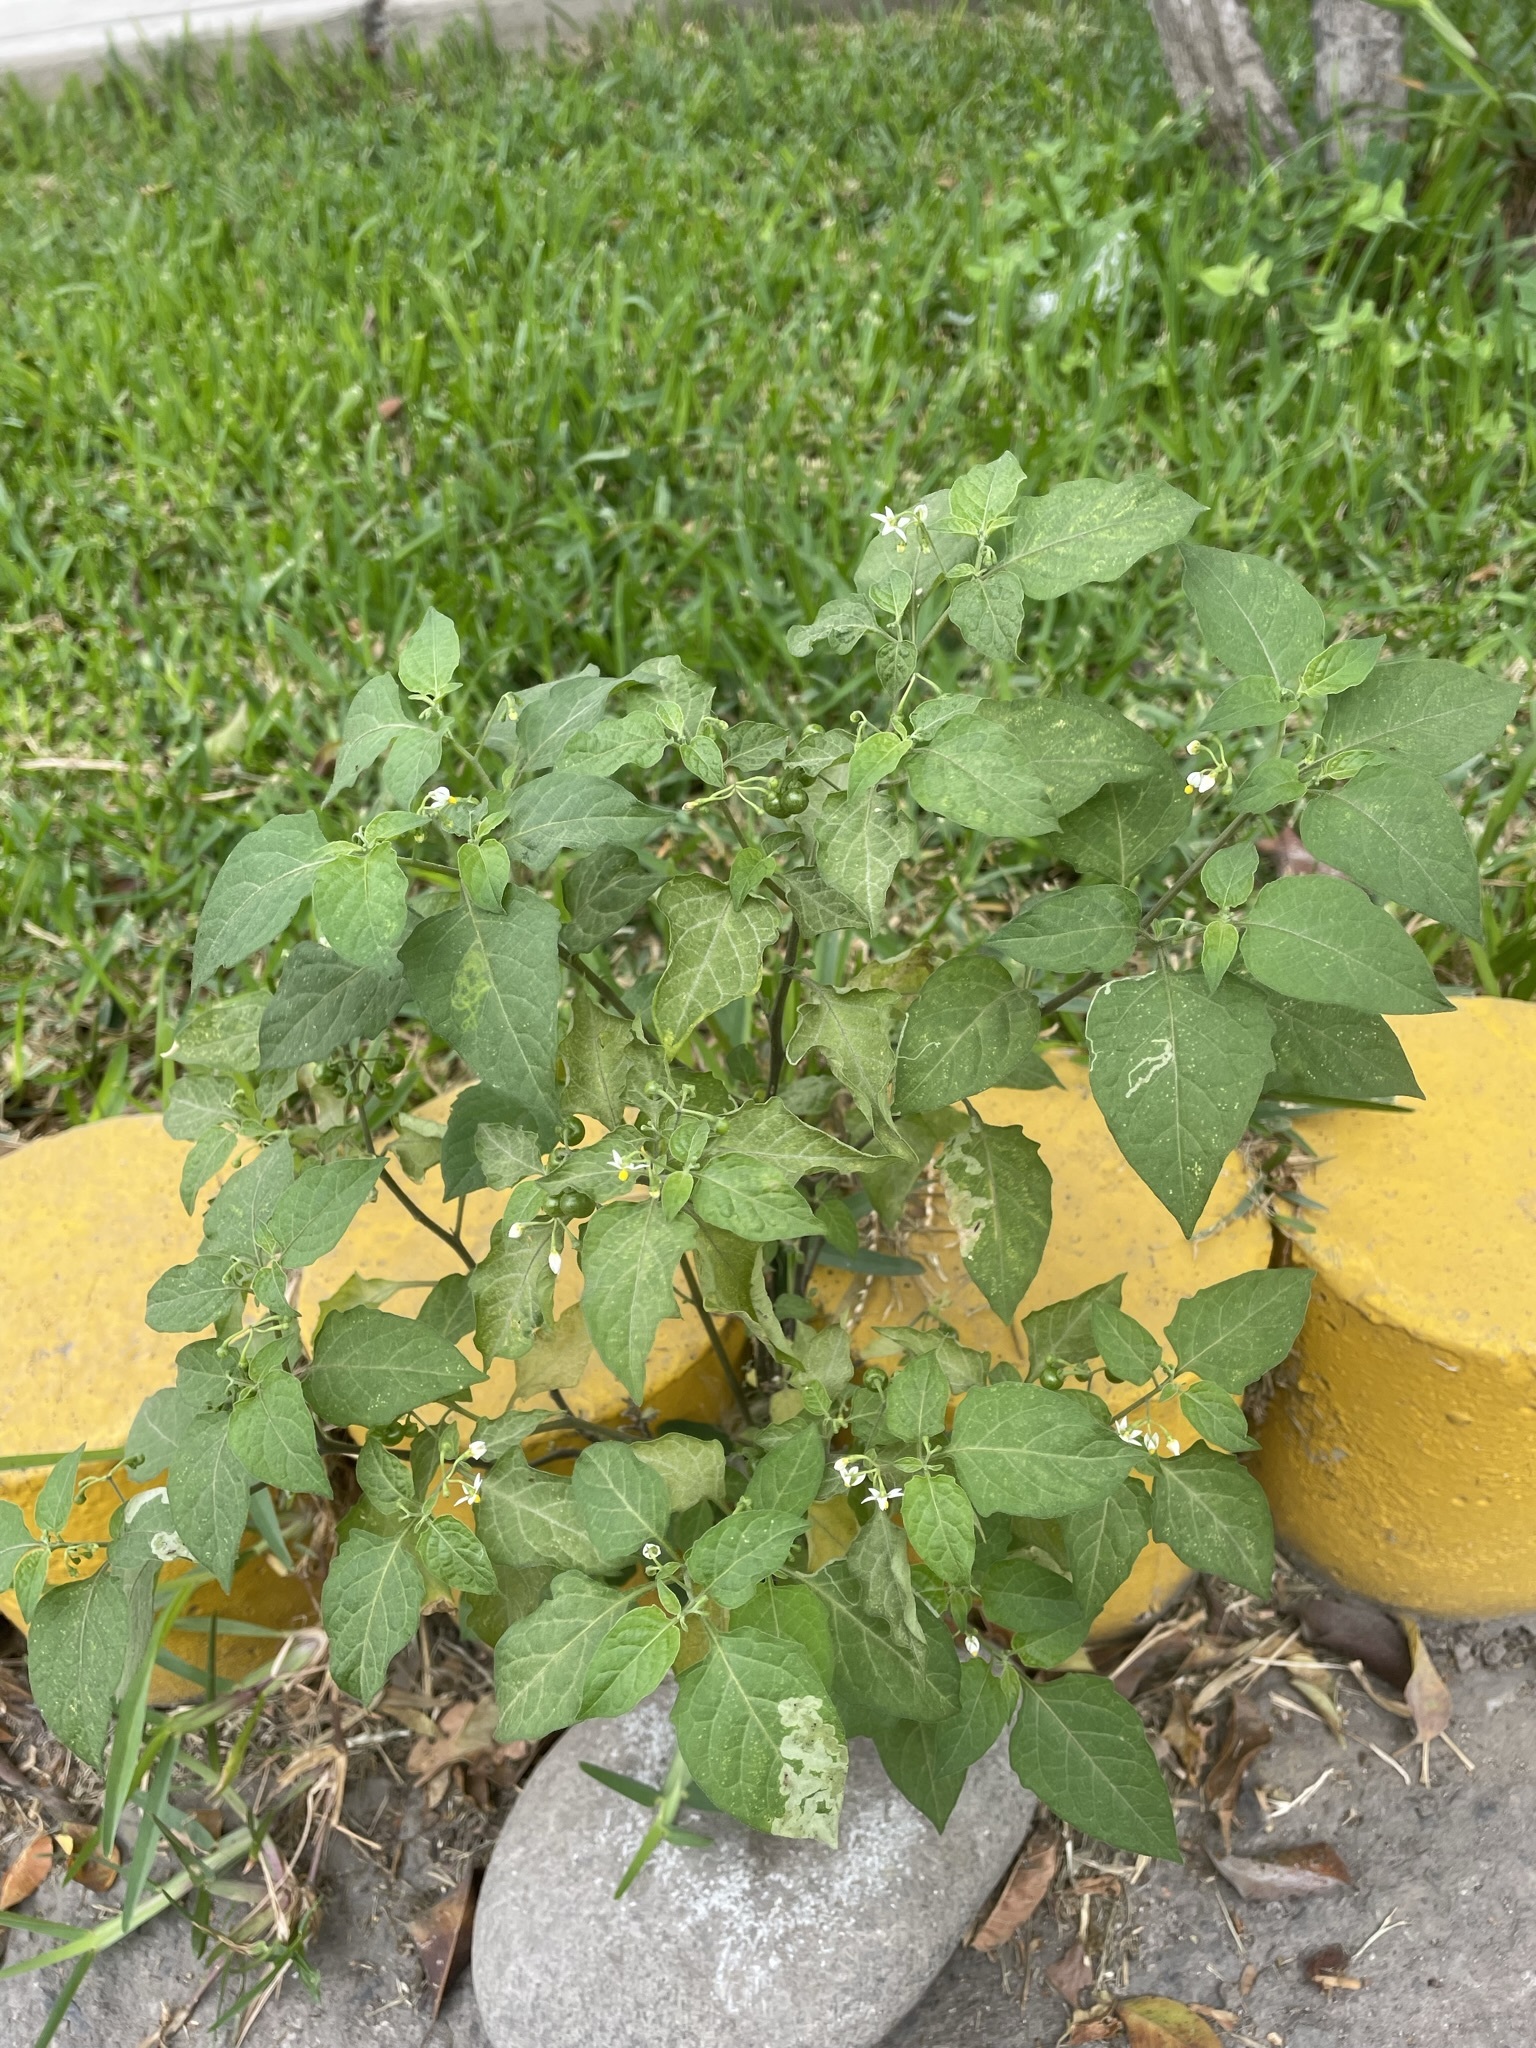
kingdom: Plantae
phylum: Tracheophyta
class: Magnoliopsida
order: Solanales
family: Solanaceae
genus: Solanum
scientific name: Solanum americanum
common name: American black nightshade
